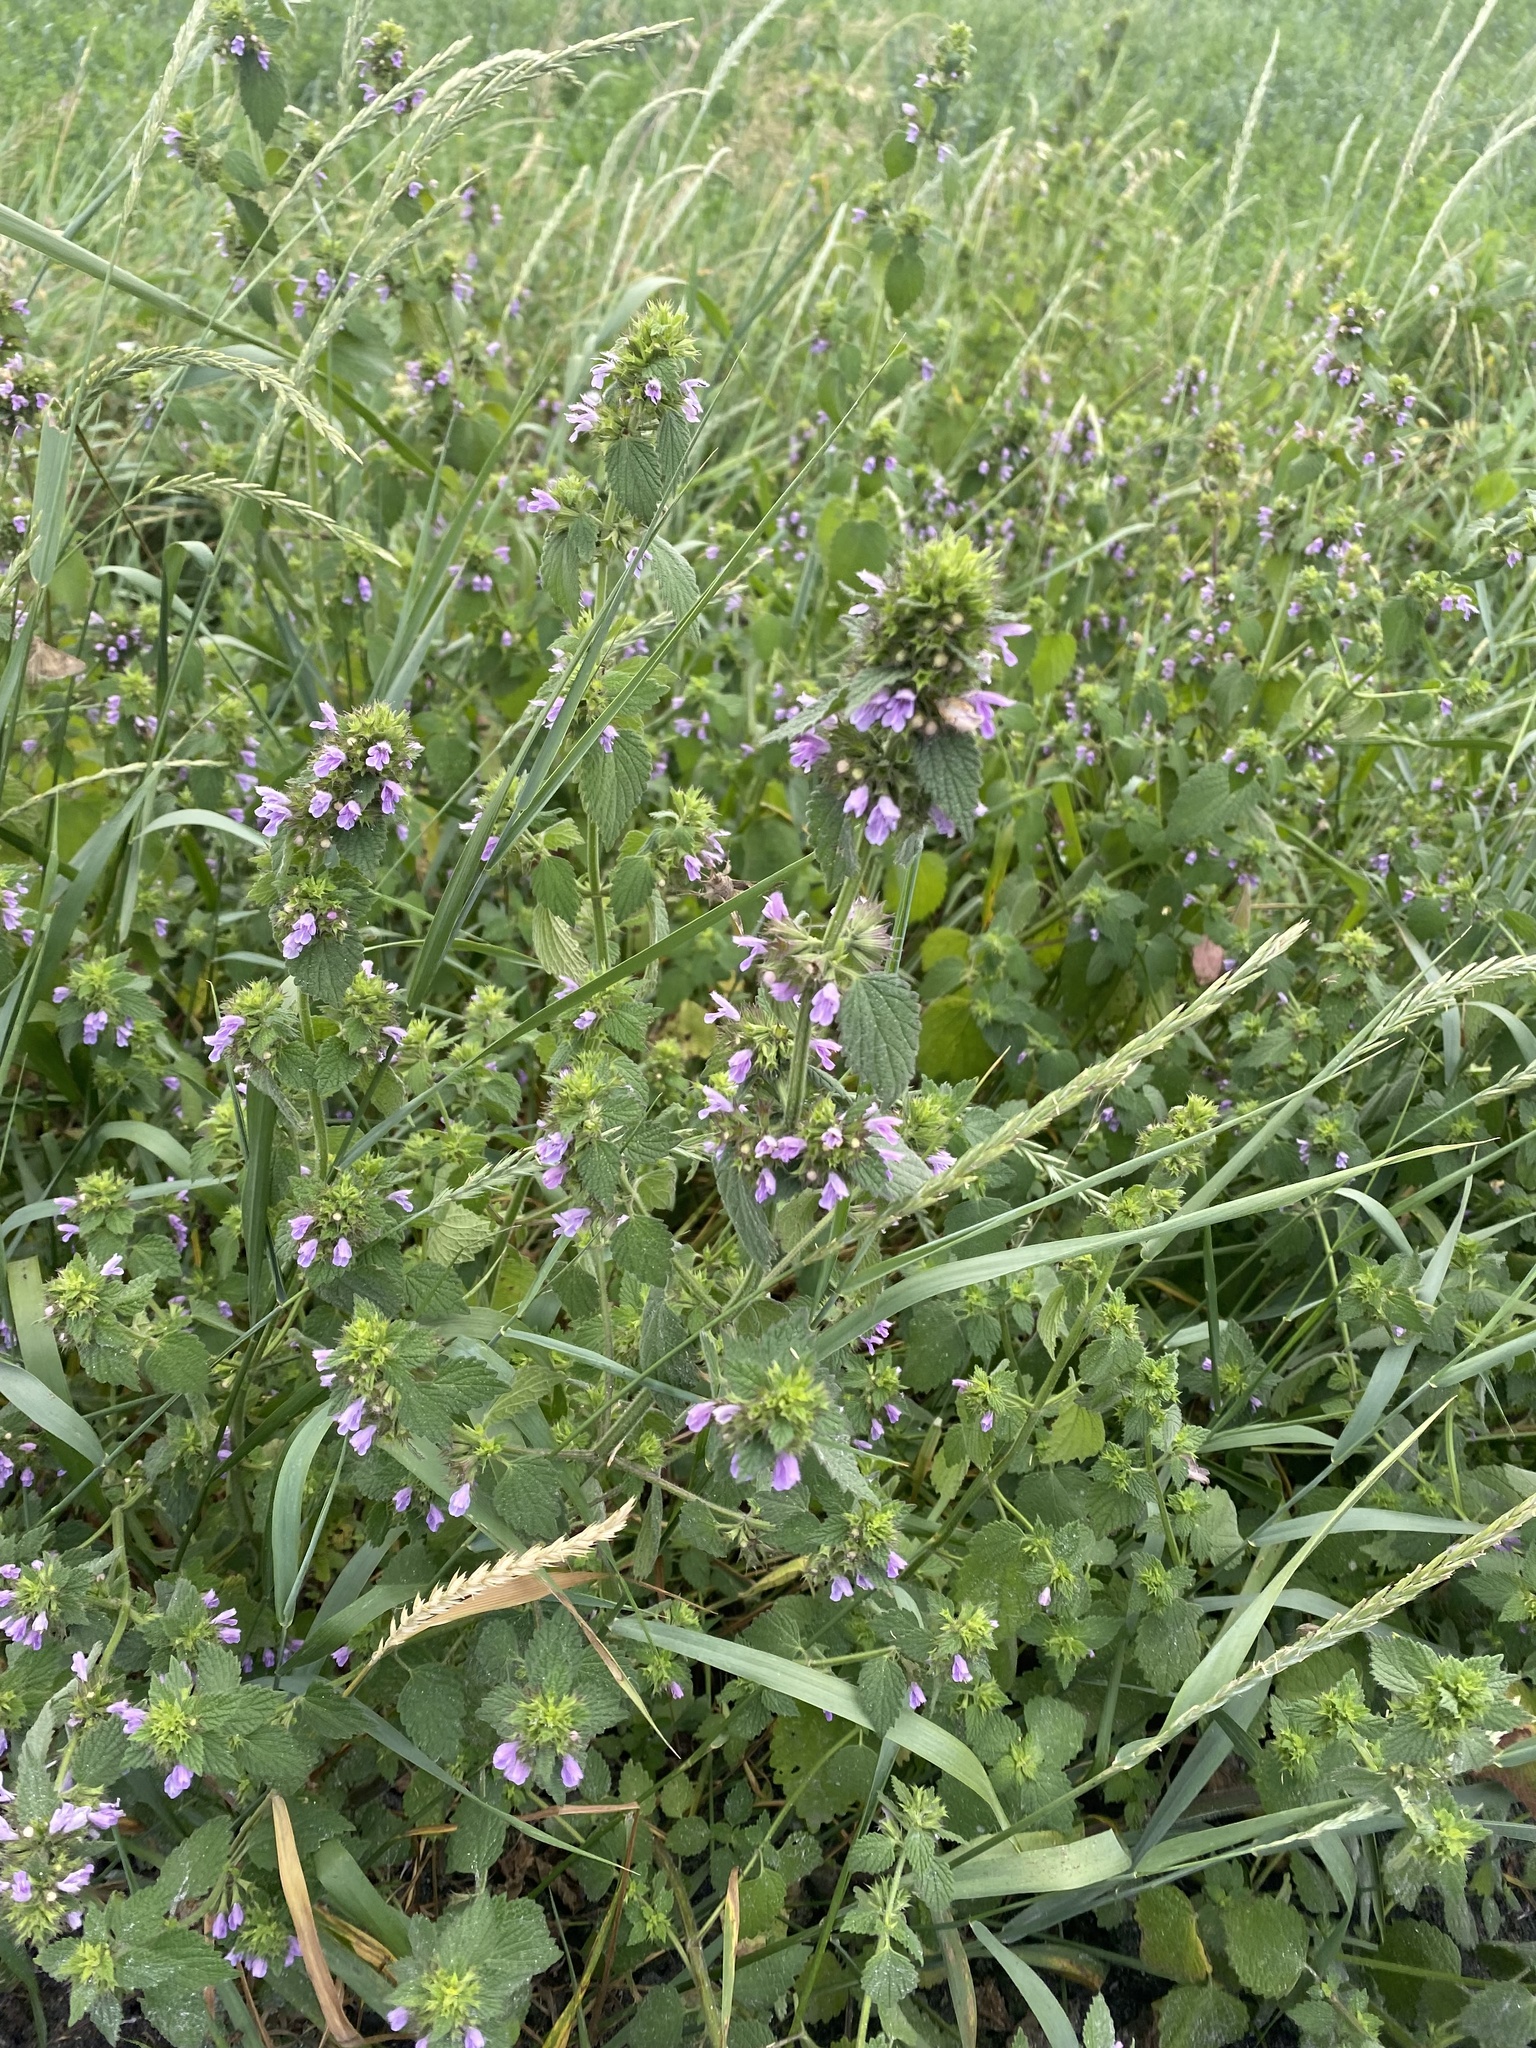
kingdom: Plantae
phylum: Tracheophyta
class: Magnoliopsida
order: Lamiales
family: Lamiaceae
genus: Ballota
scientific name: Ballota nigra
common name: Black horehound
